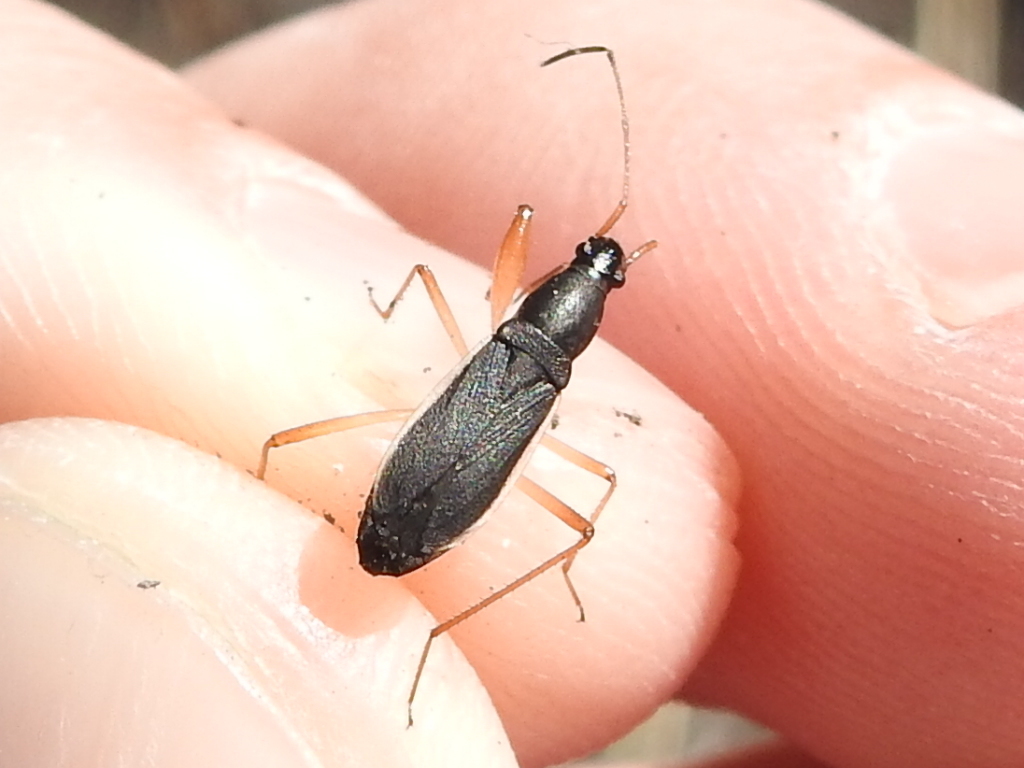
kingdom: Animalia
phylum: Arthropoda
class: Insecta
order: Hemiptera
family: Rhyparochromidae
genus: Cnemodus
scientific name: Cnemodus mavortius
